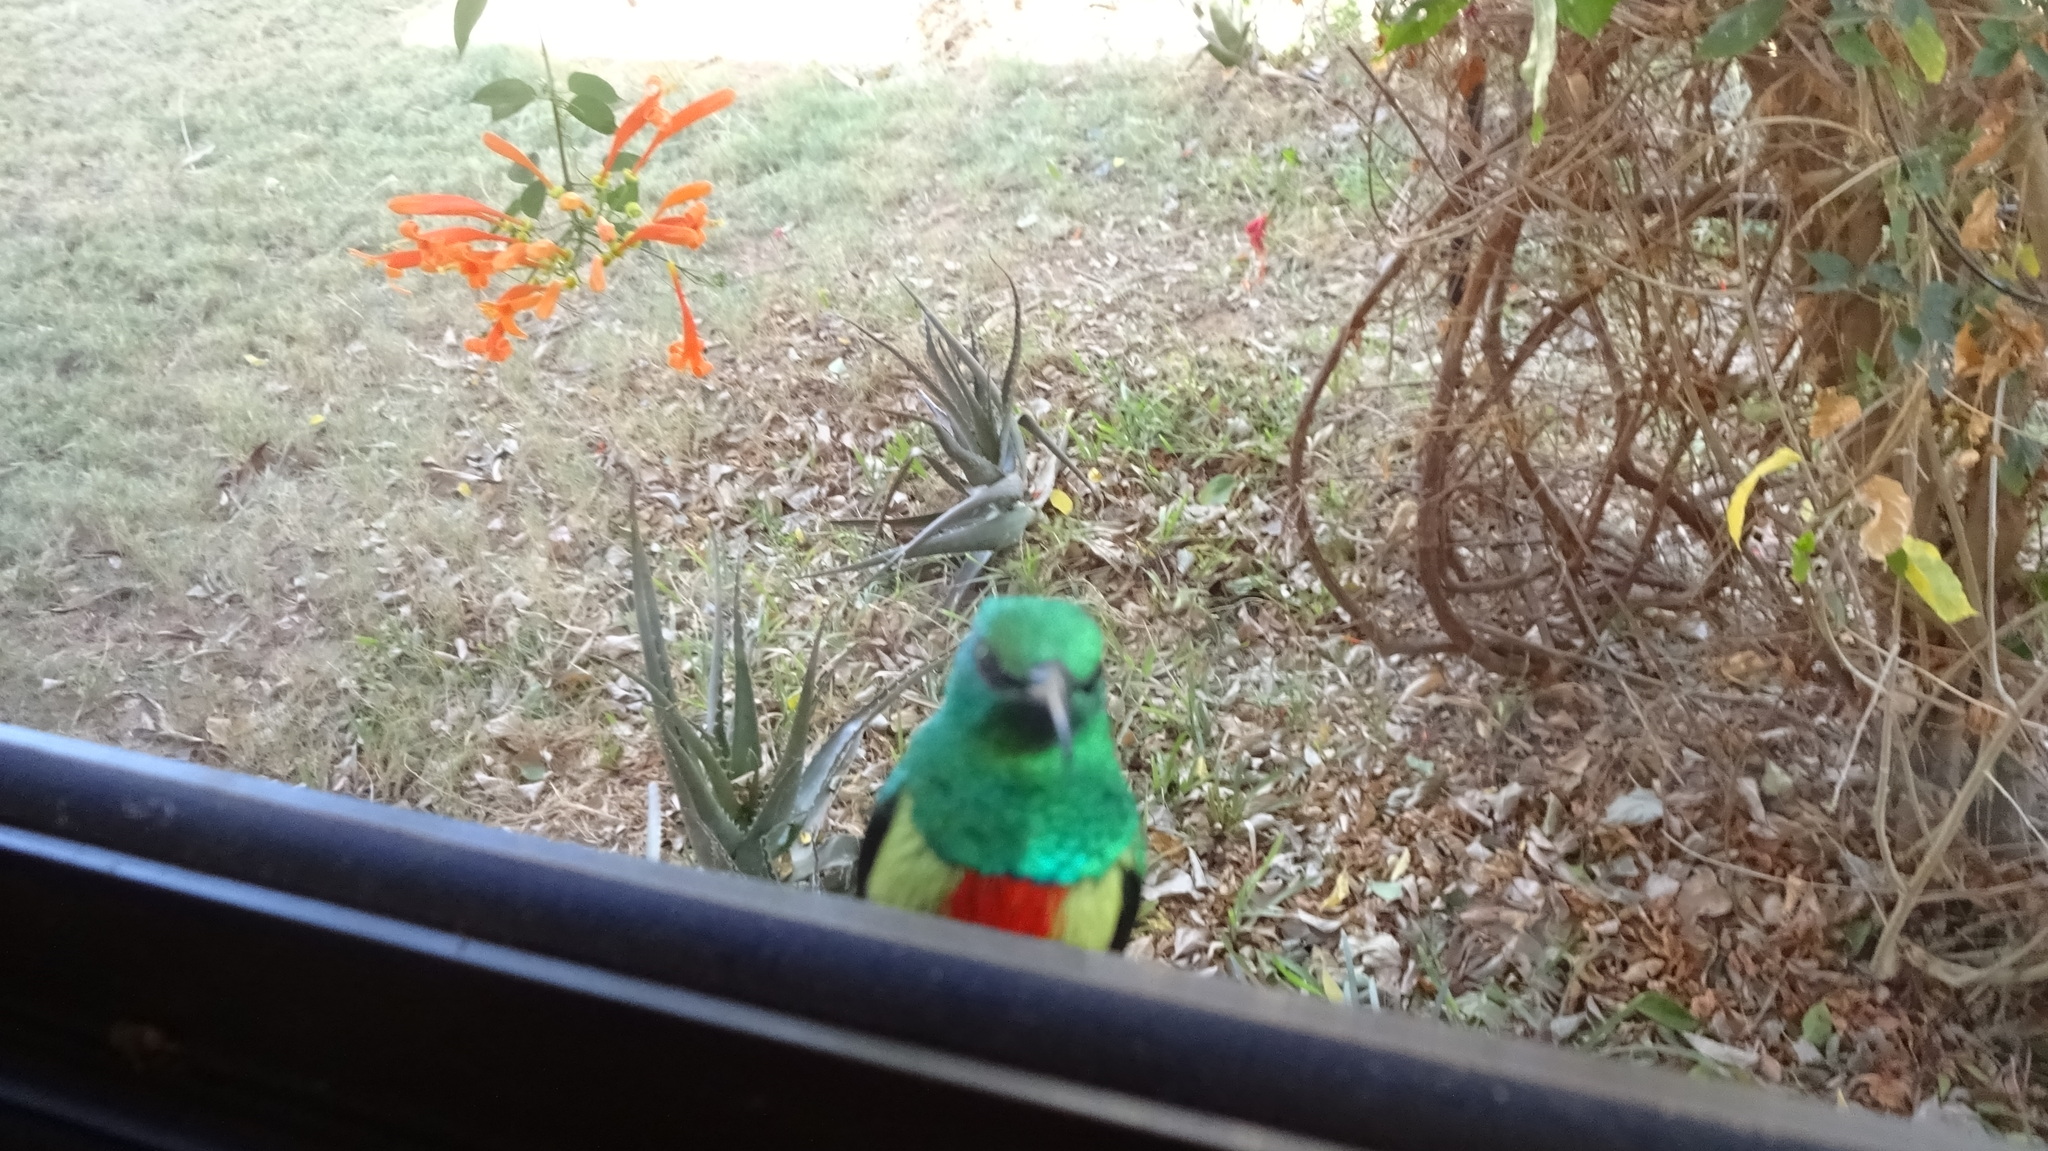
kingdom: Animalia
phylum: Chordata
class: Aves
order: Passeriformes
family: Nectariniidae
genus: Cinnyris
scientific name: Cinnyris pulchellus
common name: Beautiful sunbird
